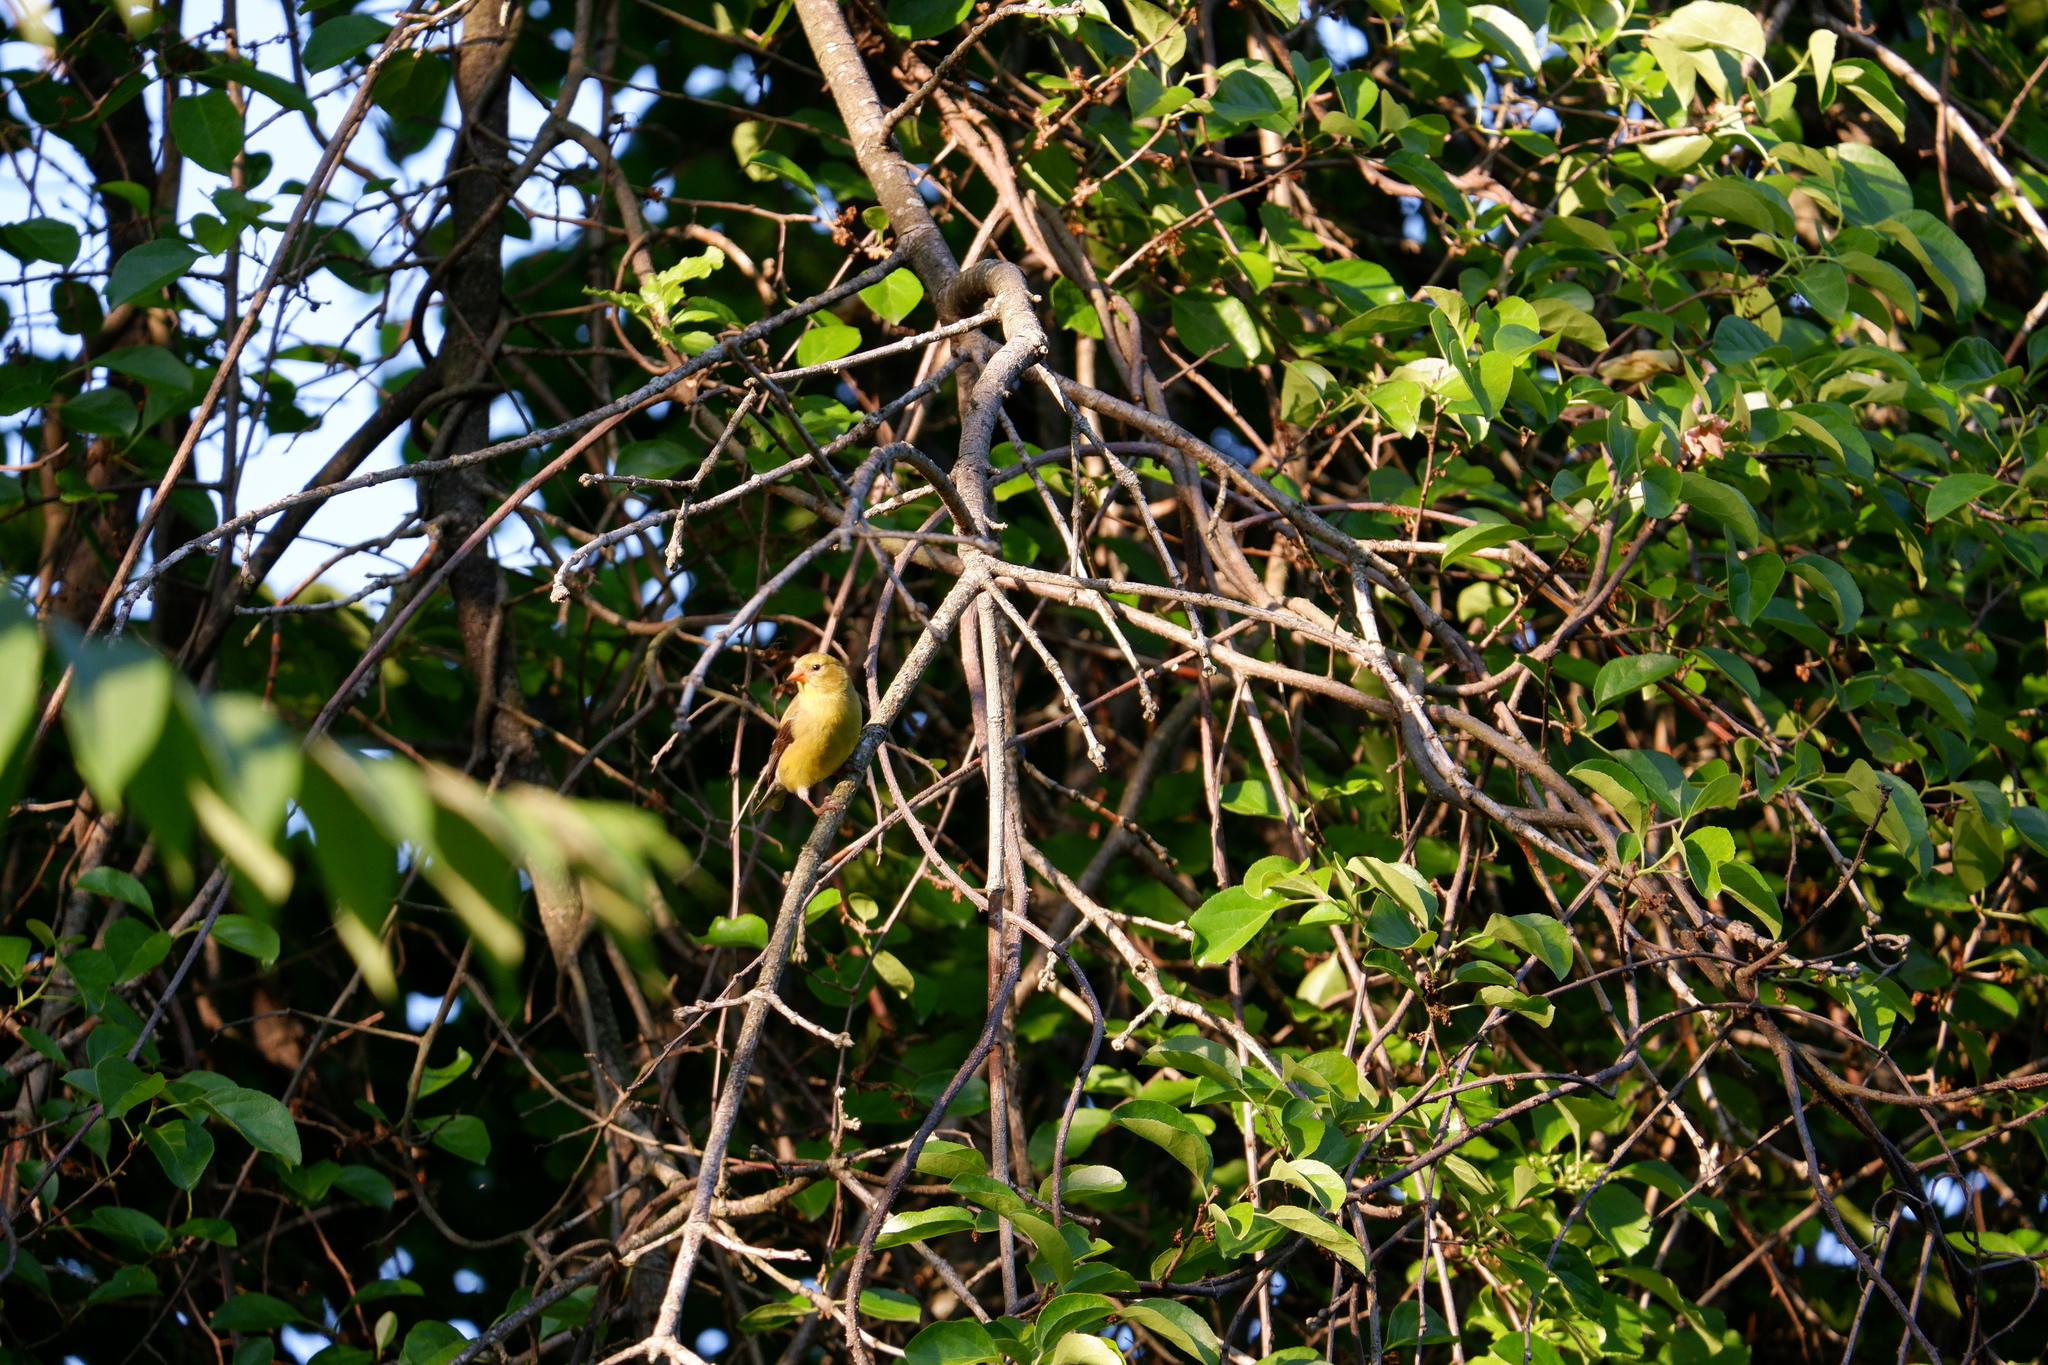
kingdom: Animalia
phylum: Chordata
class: Aves
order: Passeriformes
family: Fringillidae
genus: Spinus
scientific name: Spinus tristis
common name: American goldfinch
